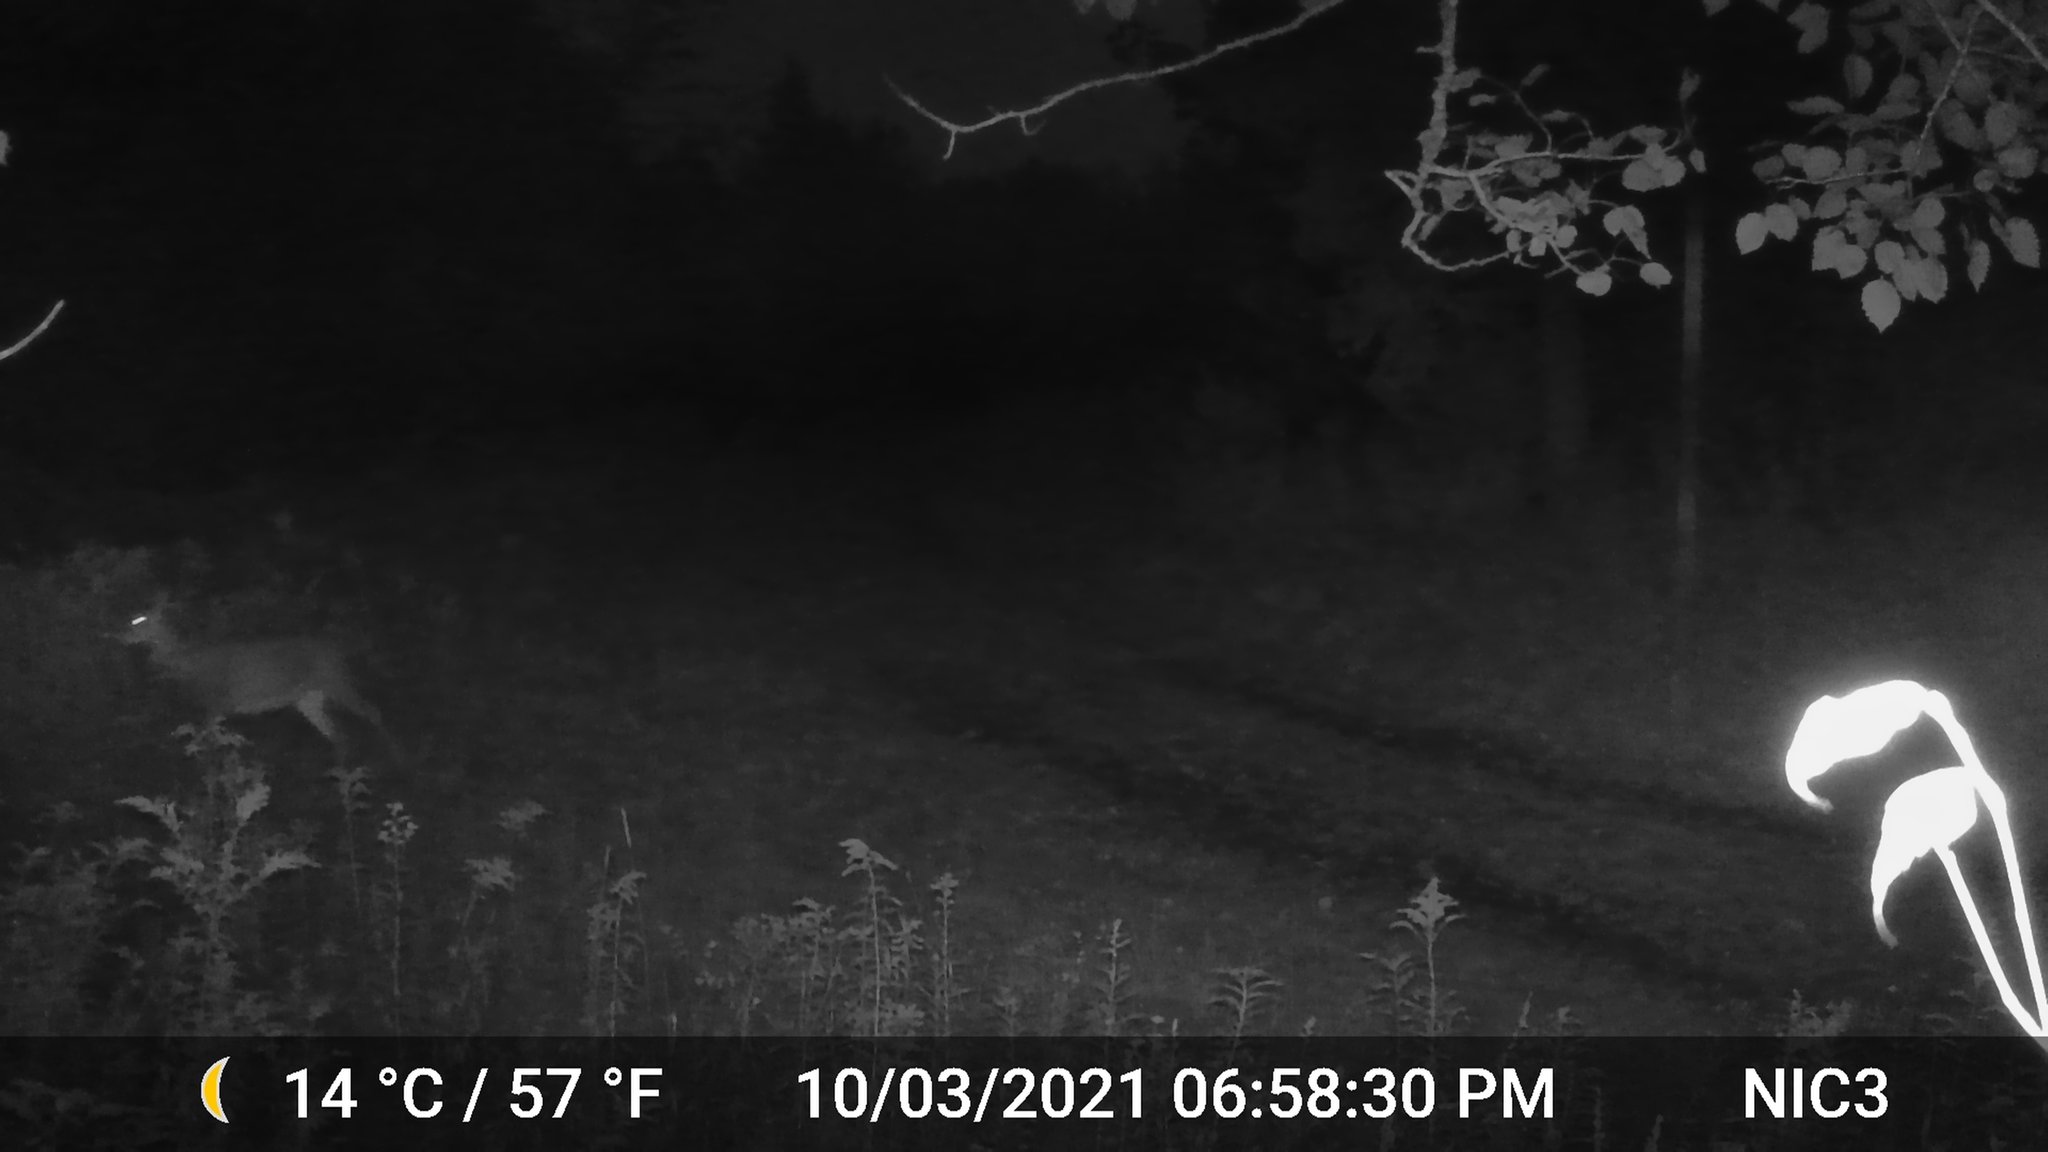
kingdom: Animalia
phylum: Chordata
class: Mammalia
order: Artiodactyla
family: Cervidae
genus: Odocoileus
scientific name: Odocoileus virginianus
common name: White-tailed deer
